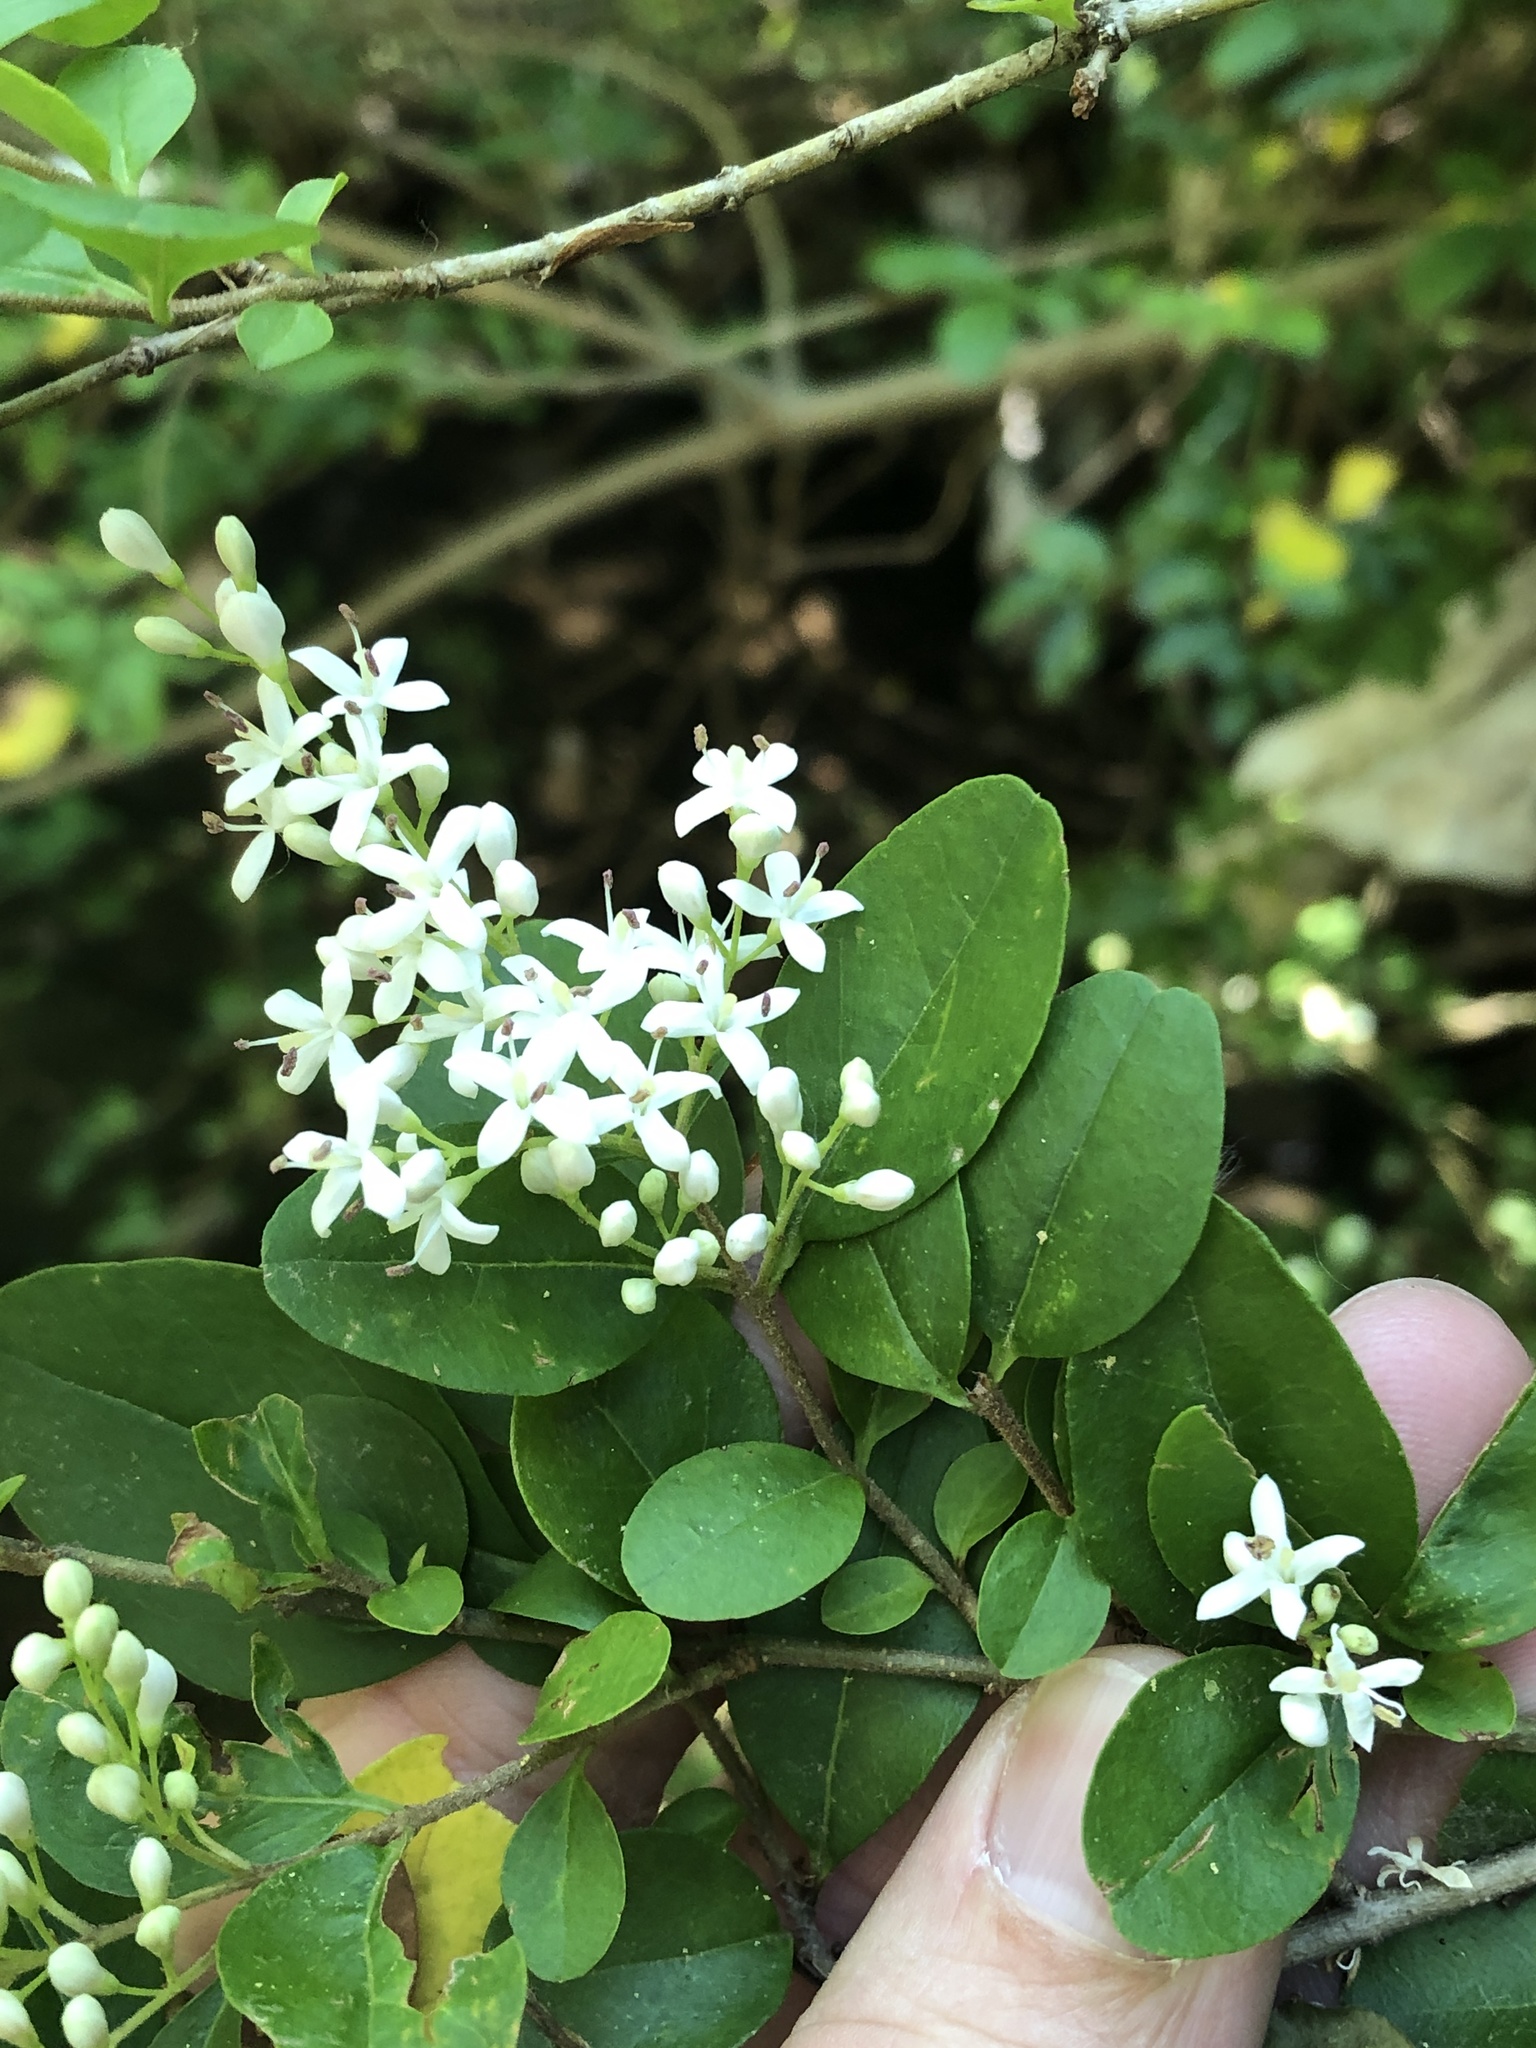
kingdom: Plantae
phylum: Tracheophyta
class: Magnoliopsida
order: Lamiales
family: Oleaceae
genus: Ligustrum
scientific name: Ligustrum sinense
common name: Chinese privet
